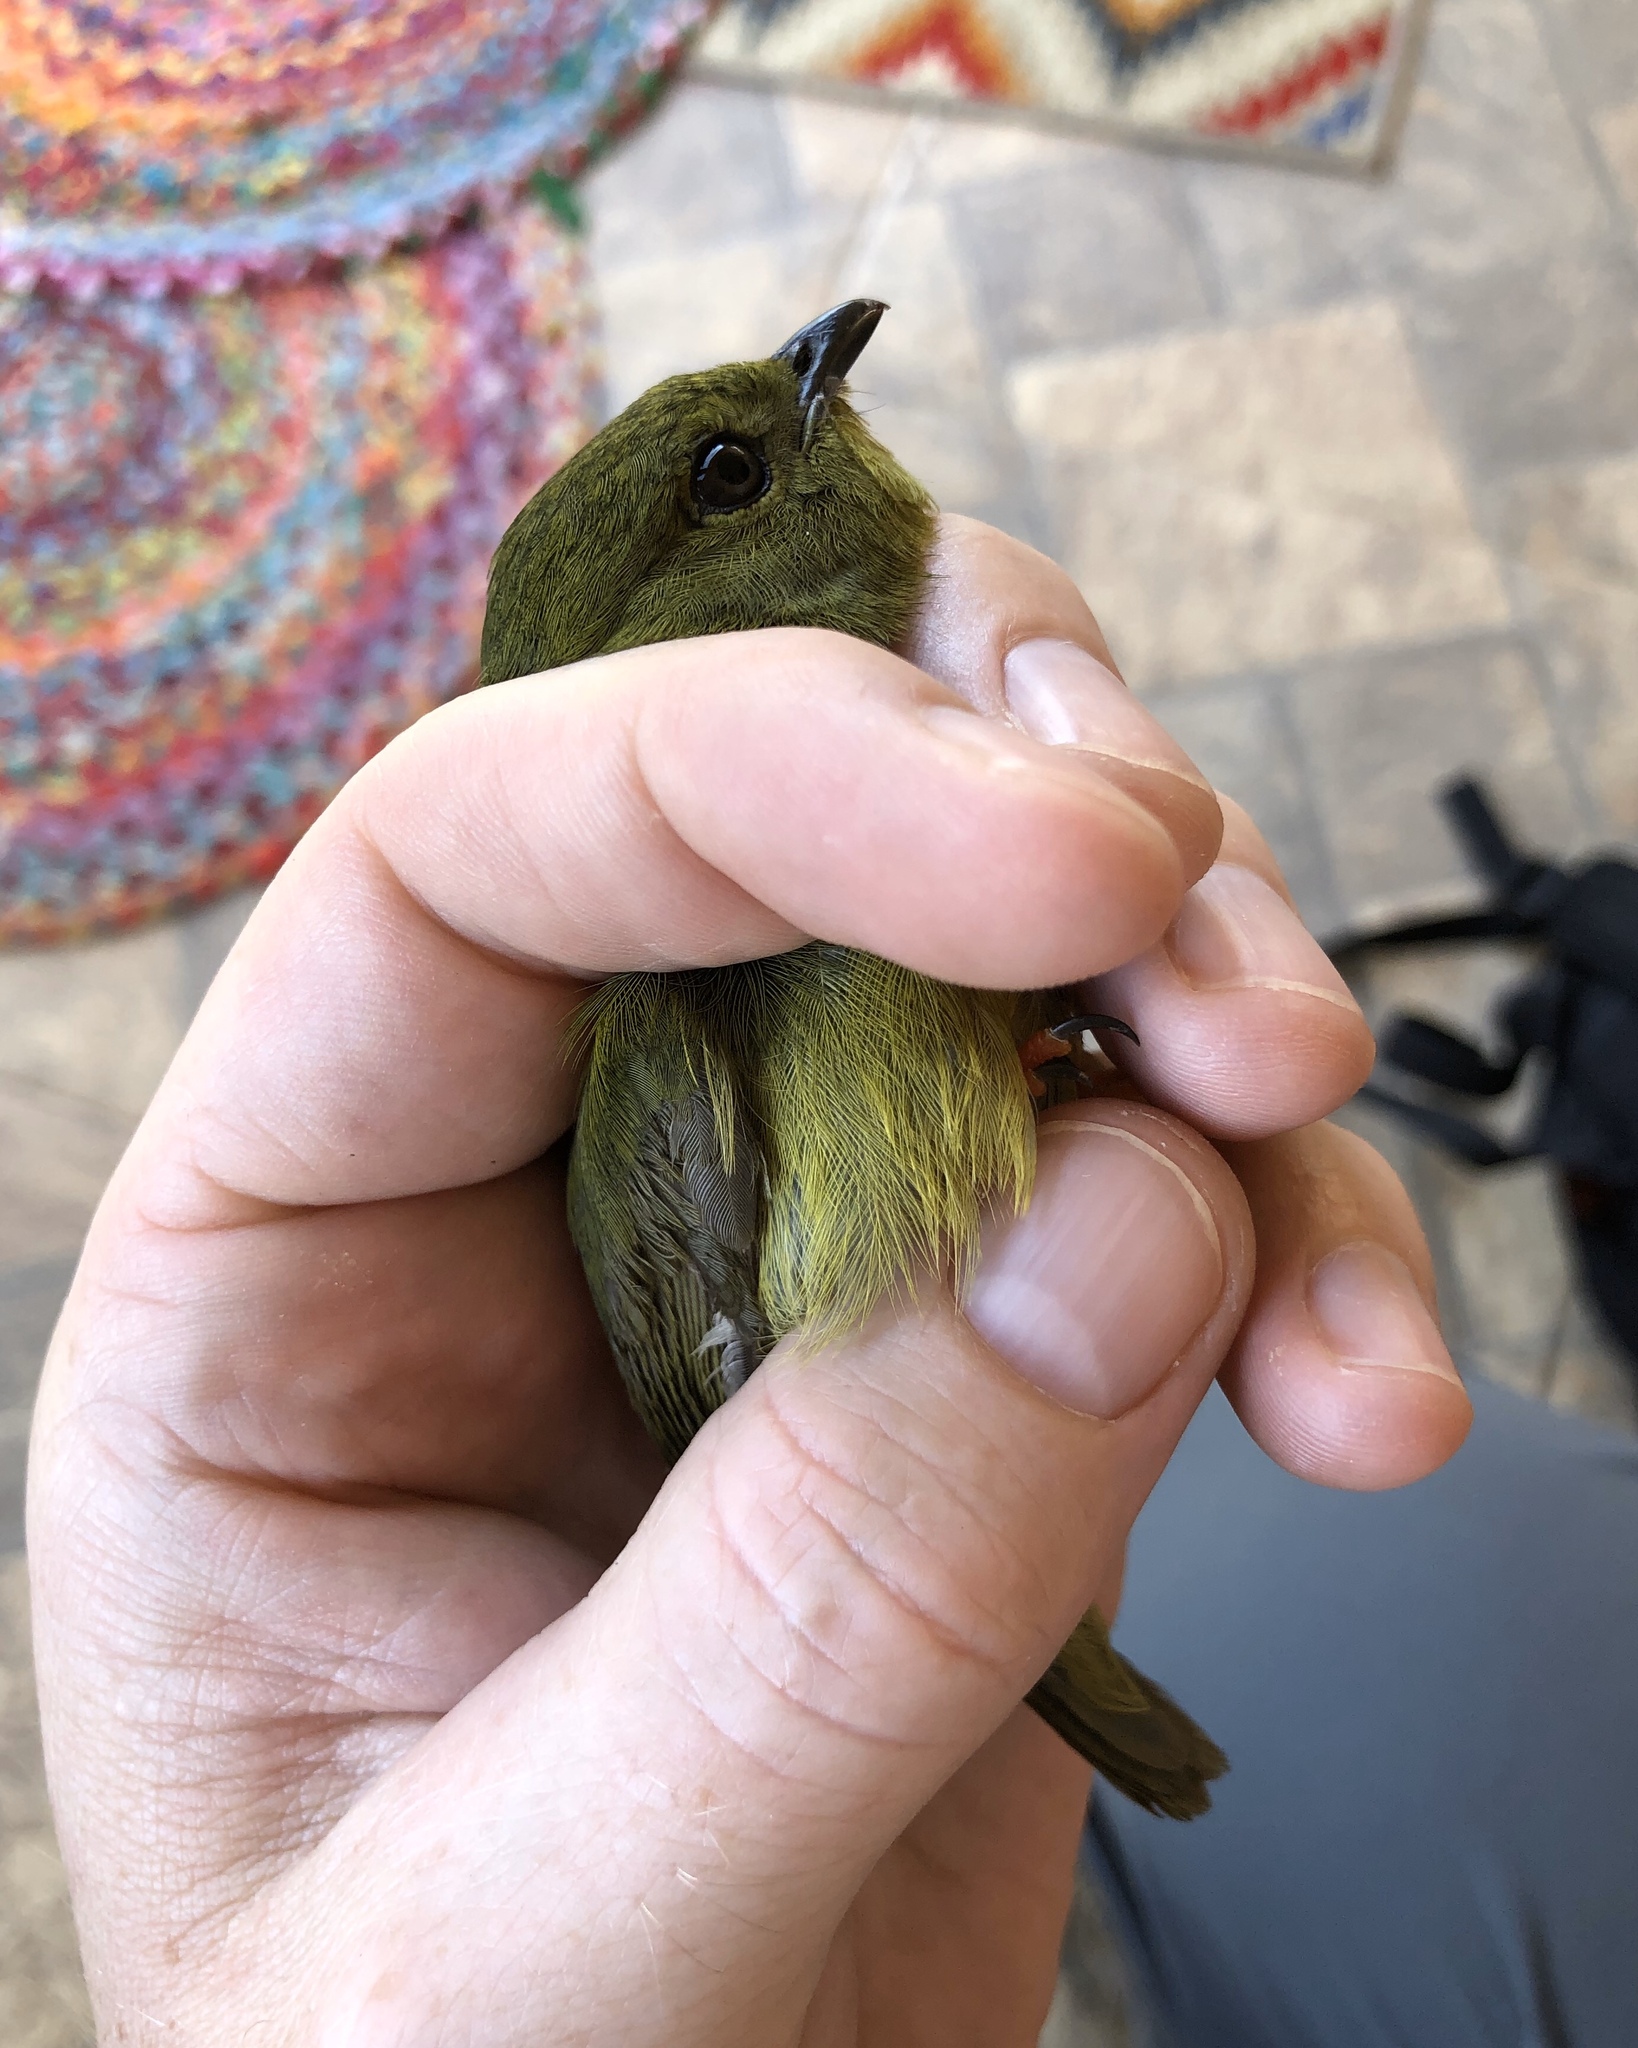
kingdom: Animalia
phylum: Chordata
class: Aves
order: Passeriformes
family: Pipridae
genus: Manacus
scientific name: Manacus vitellinus
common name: Golden-collared manakin
